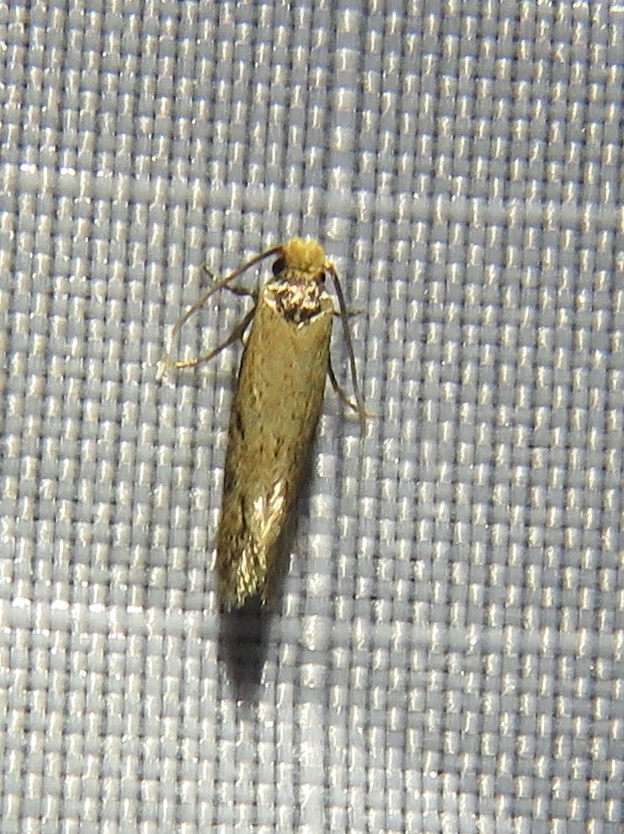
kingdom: Animalia
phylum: Arthropoda
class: Insecta
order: Lepidoptera
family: Tineidae
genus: Tinea
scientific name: Tinea apicimaculella
